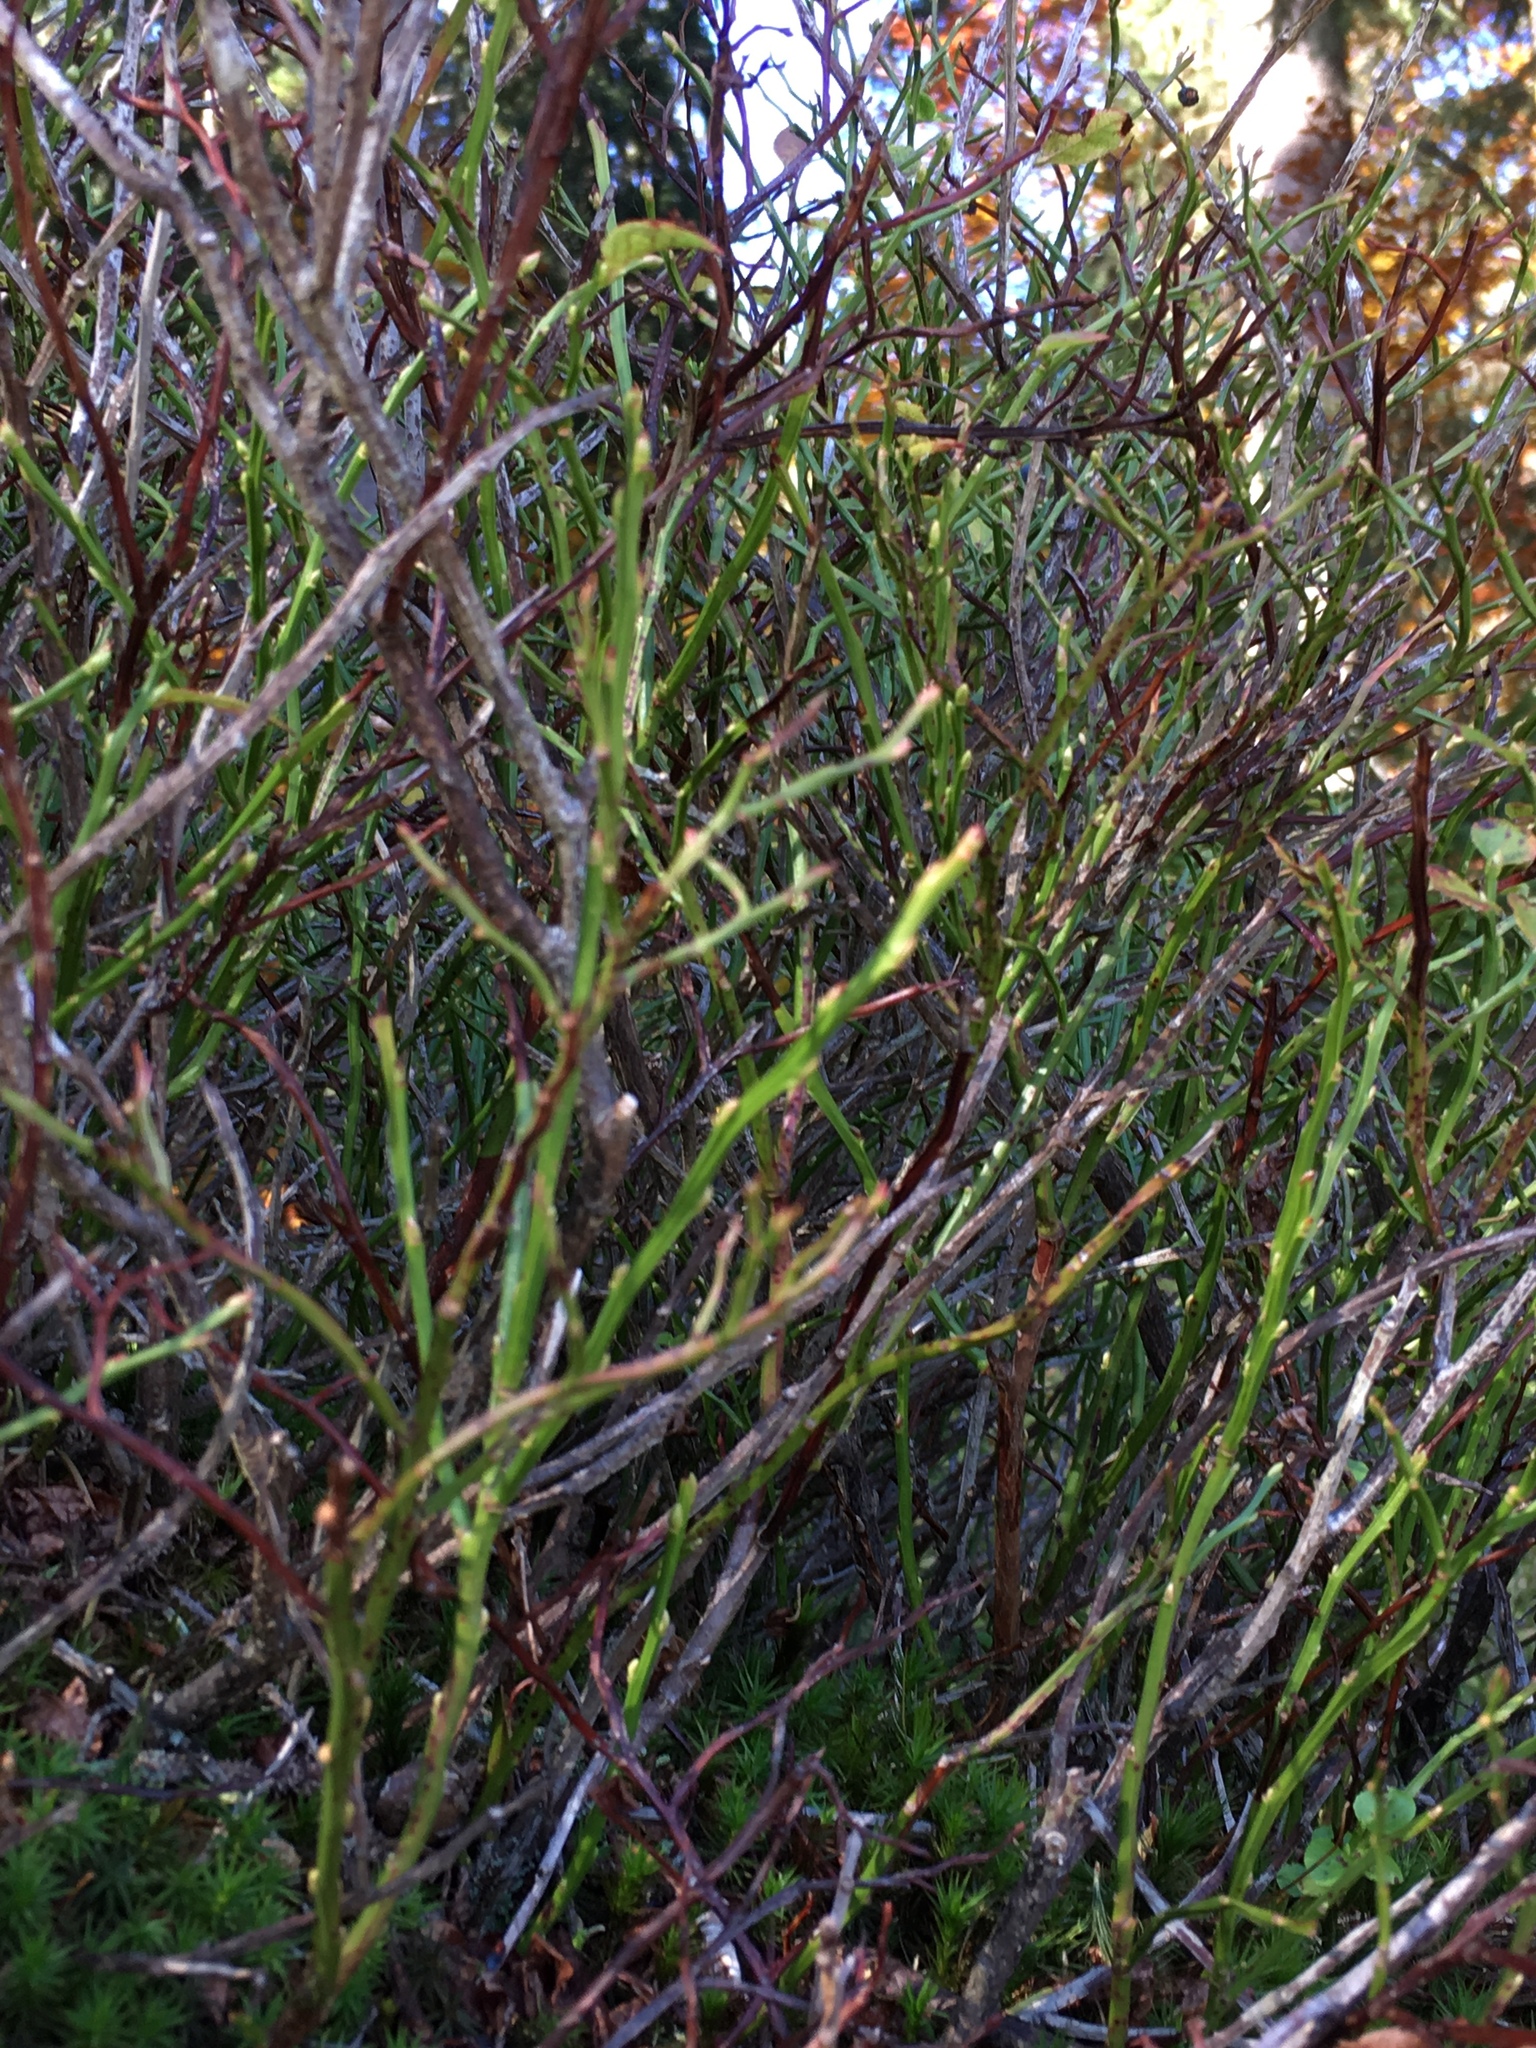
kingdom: Plantae
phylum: Tracheophyta
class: Magnoliopsida
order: Ericales
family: Ericaceae
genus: Vaccinium
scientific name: Vaccinium myrtillus
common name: Bilberry
